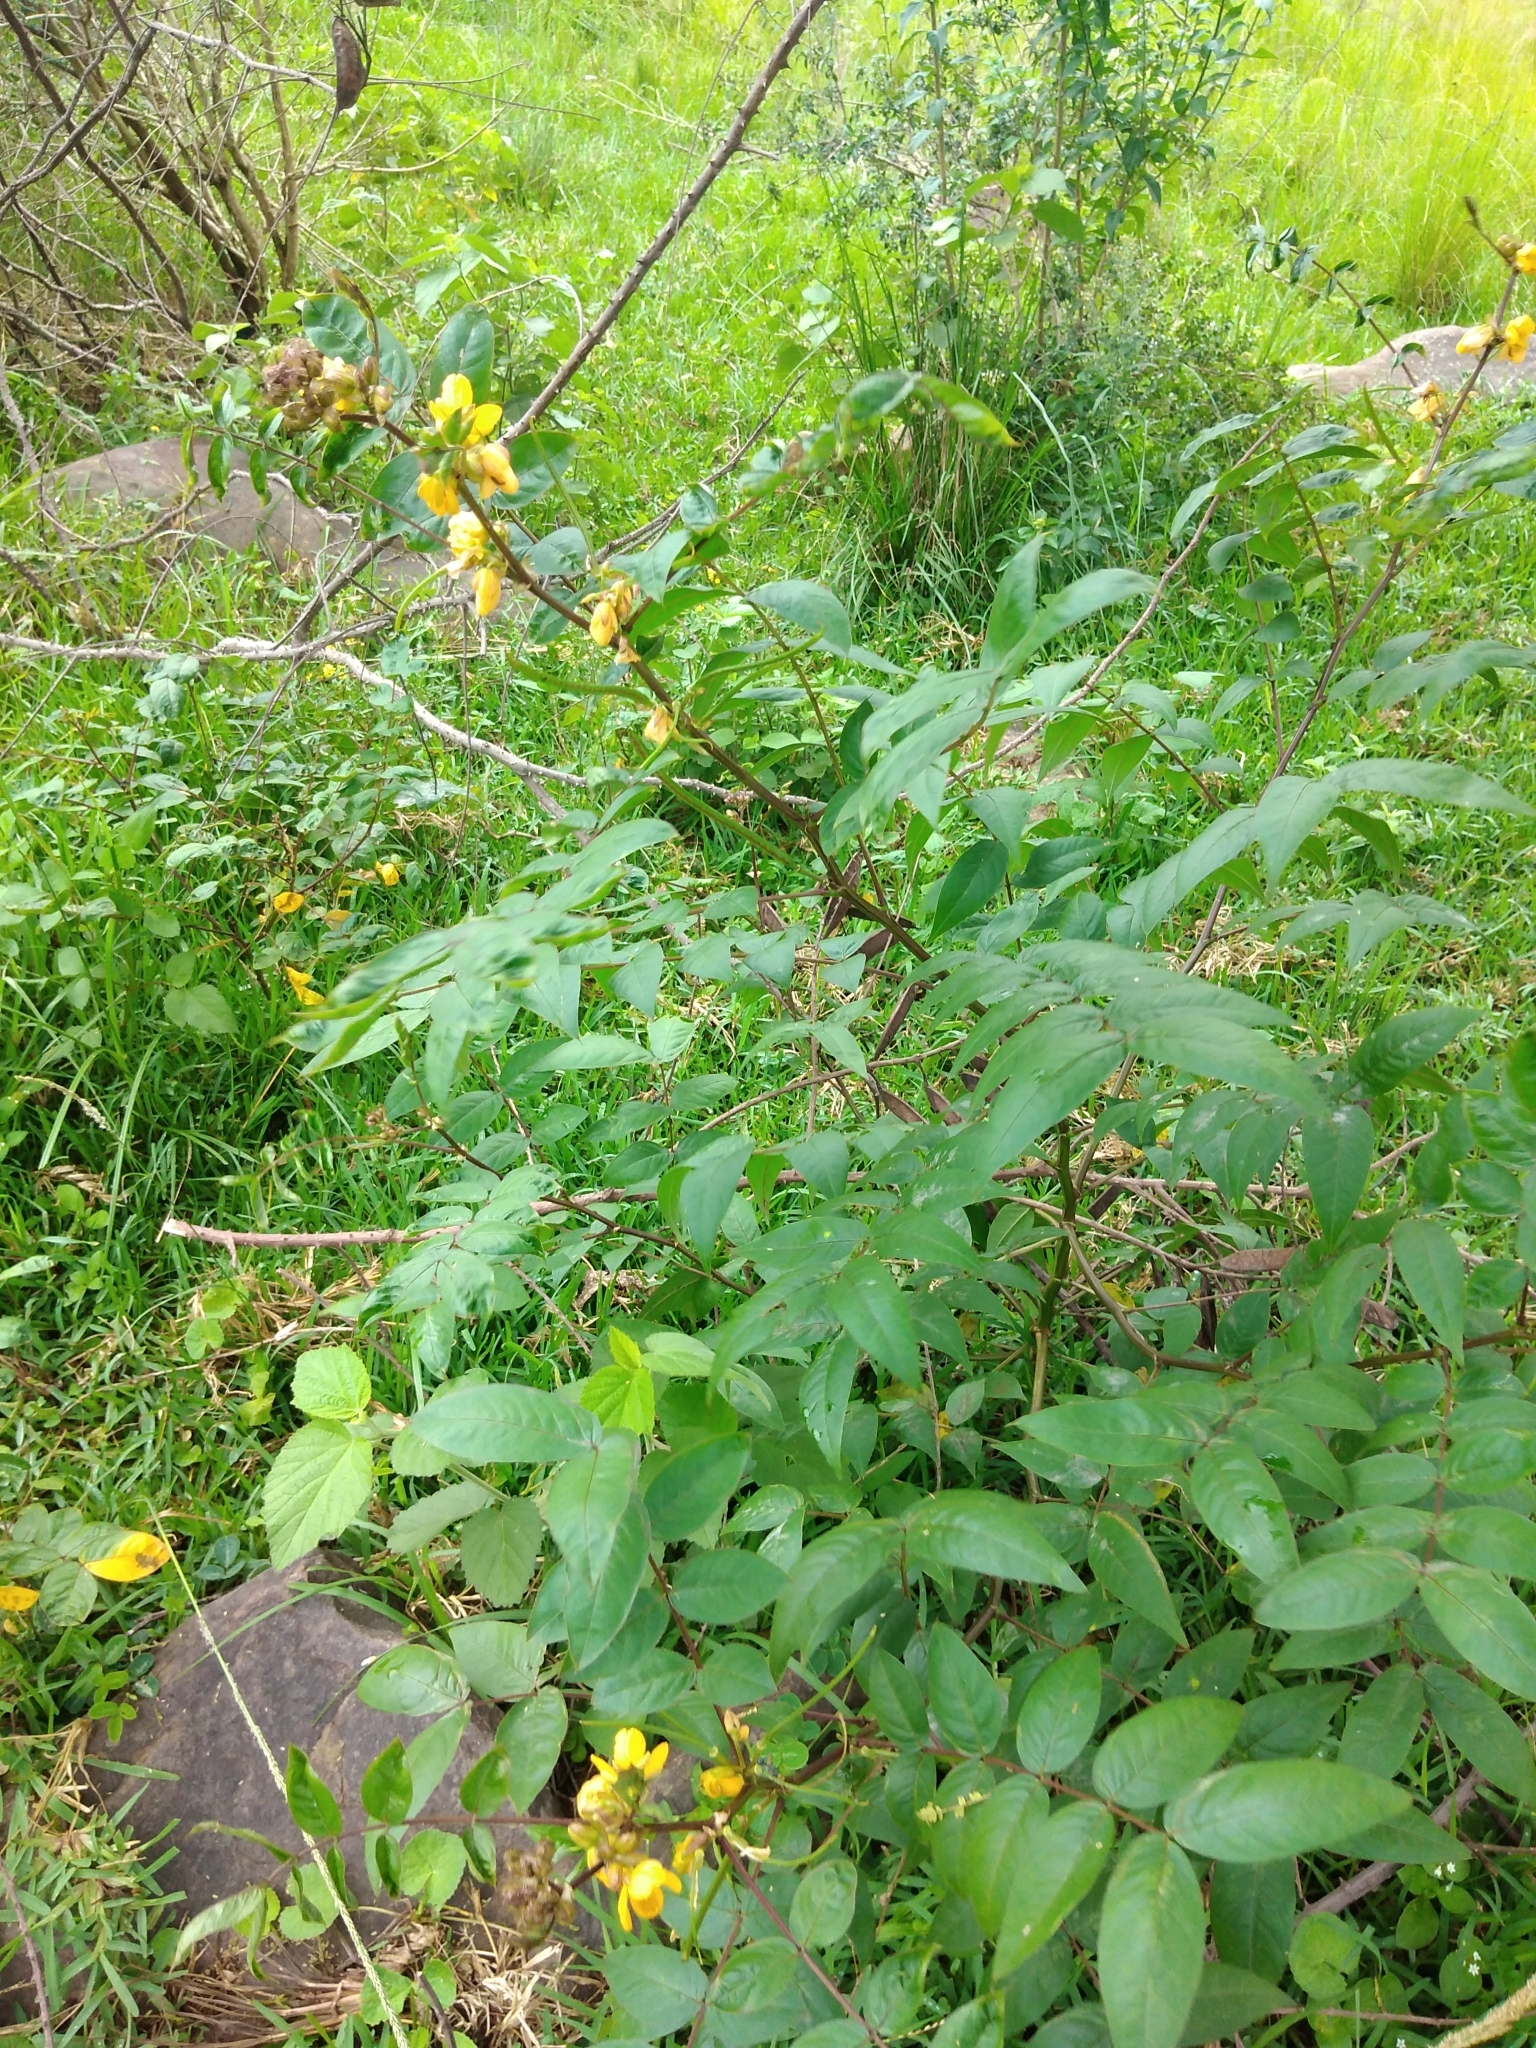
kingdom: Plantae
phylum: Tracheophyta
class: Magnoliopsida
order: Fabales
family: Fabaceae
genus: Senna
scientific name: Senna occidentalis
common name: Septicweed
